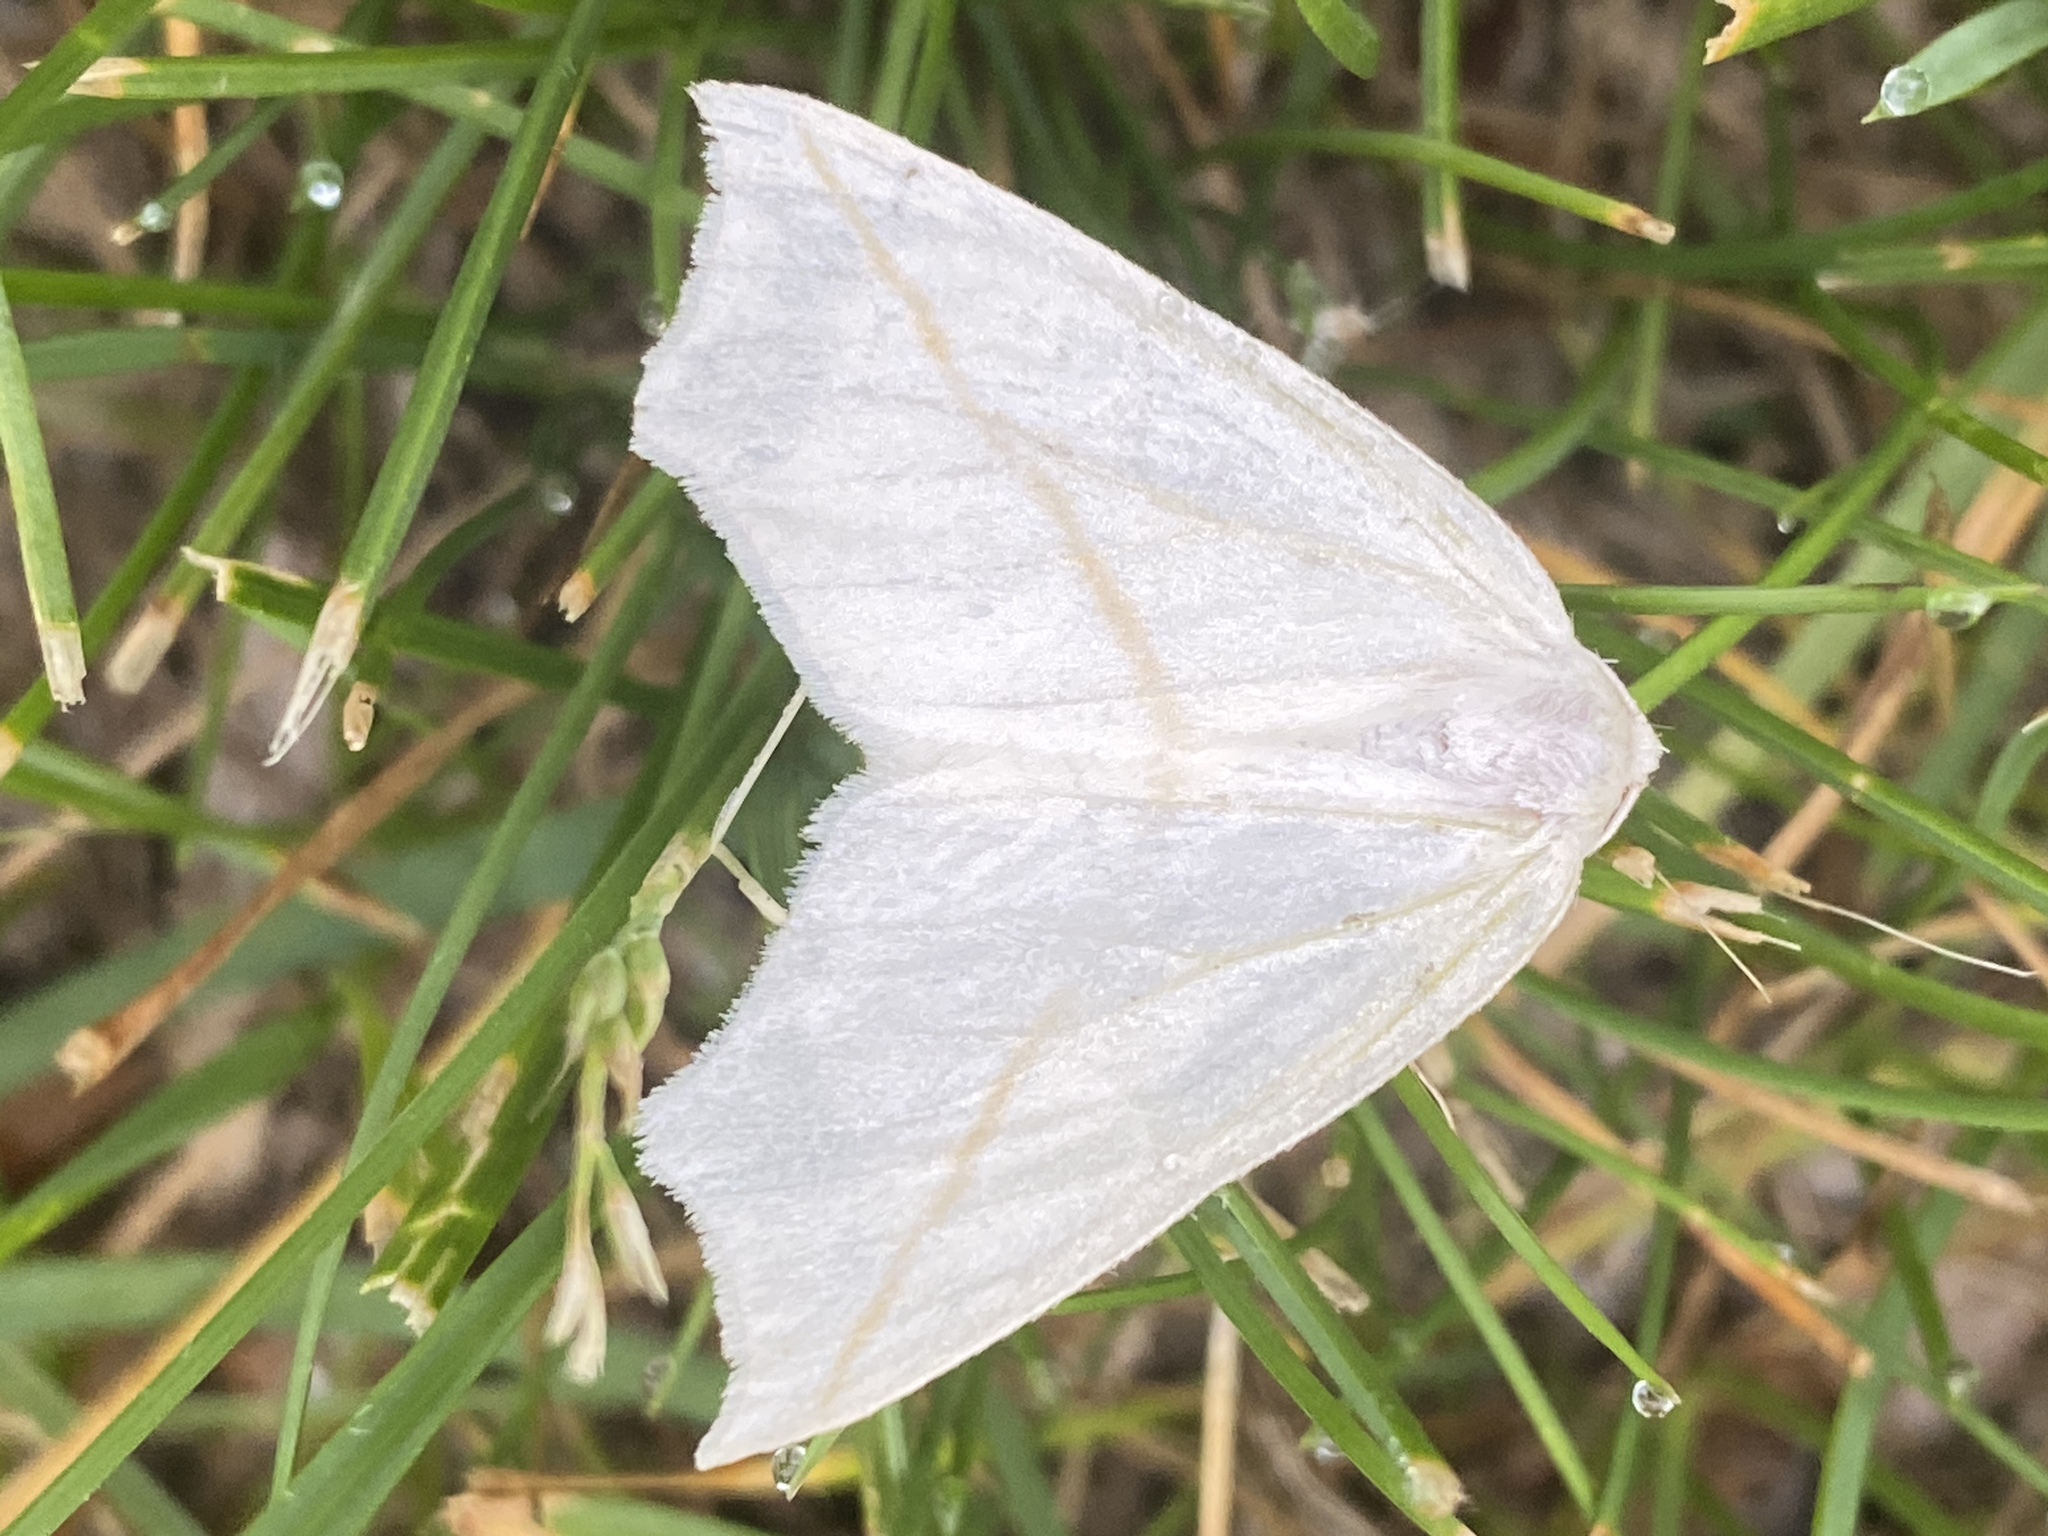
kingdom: Animalia
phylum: Arthropoda
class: Insecta
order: Lepidoptera
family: Geometridae
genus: Tetracis
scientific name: Tetracis cachexiata
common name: White slant-line
